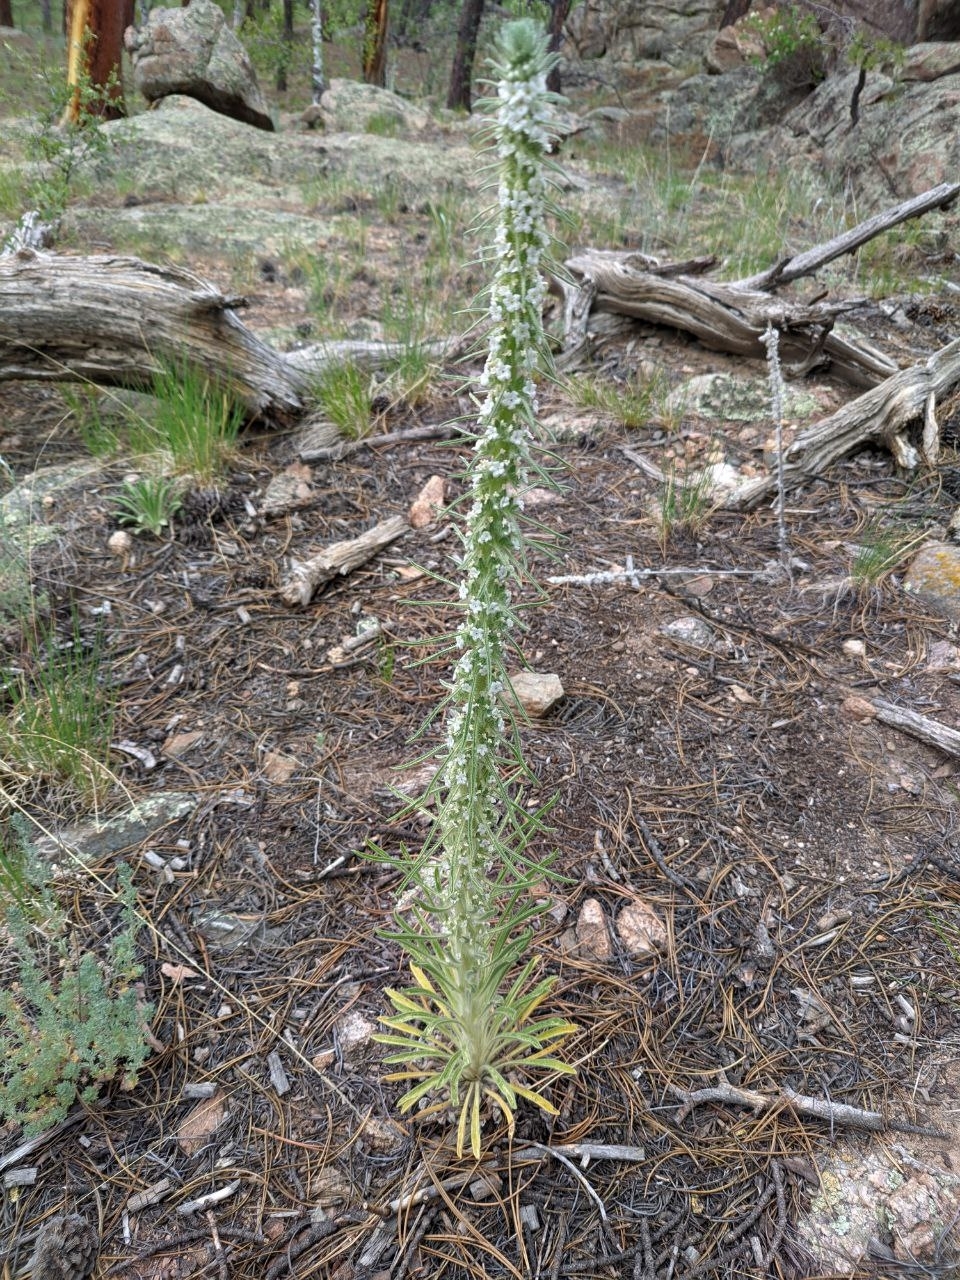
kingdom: Plantae
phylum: Tracheophyta
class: Magnoliopsida
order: Boraginales
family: Boraginaceae
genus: Oreocarya
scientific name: Oreocarya virgata
